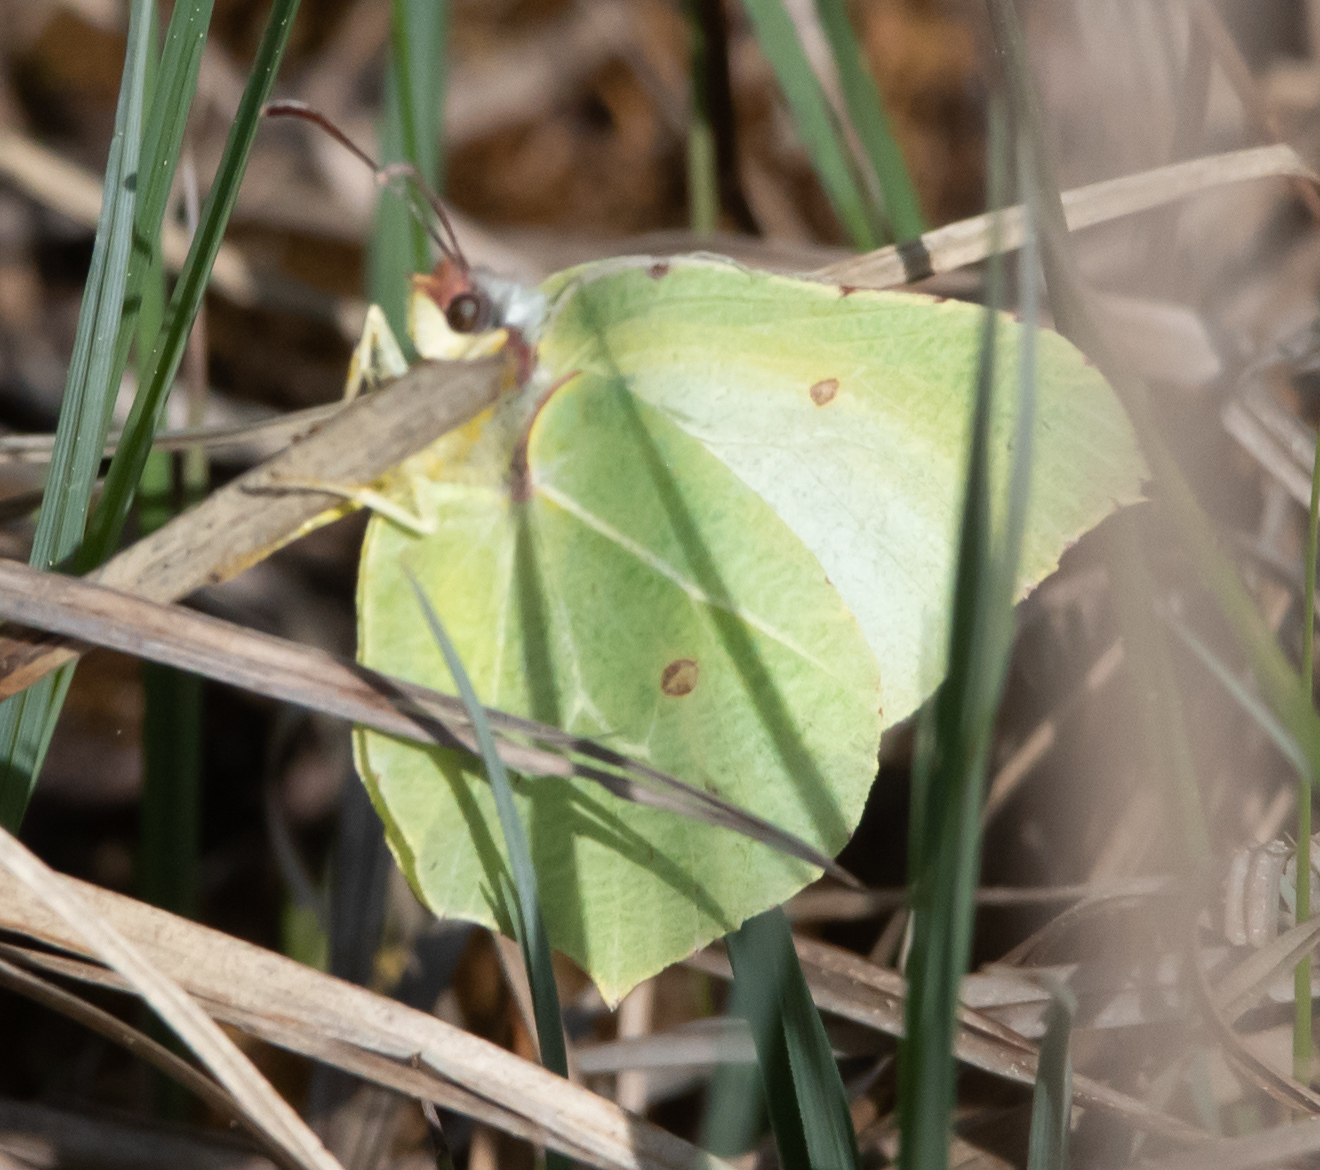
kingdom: Animalia
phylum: Arthropoda
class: Insecta
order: Lepidoptera
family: Pieridae
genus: Gonepteryx
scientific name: Gonepteryx rhamni
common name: Brimstone
